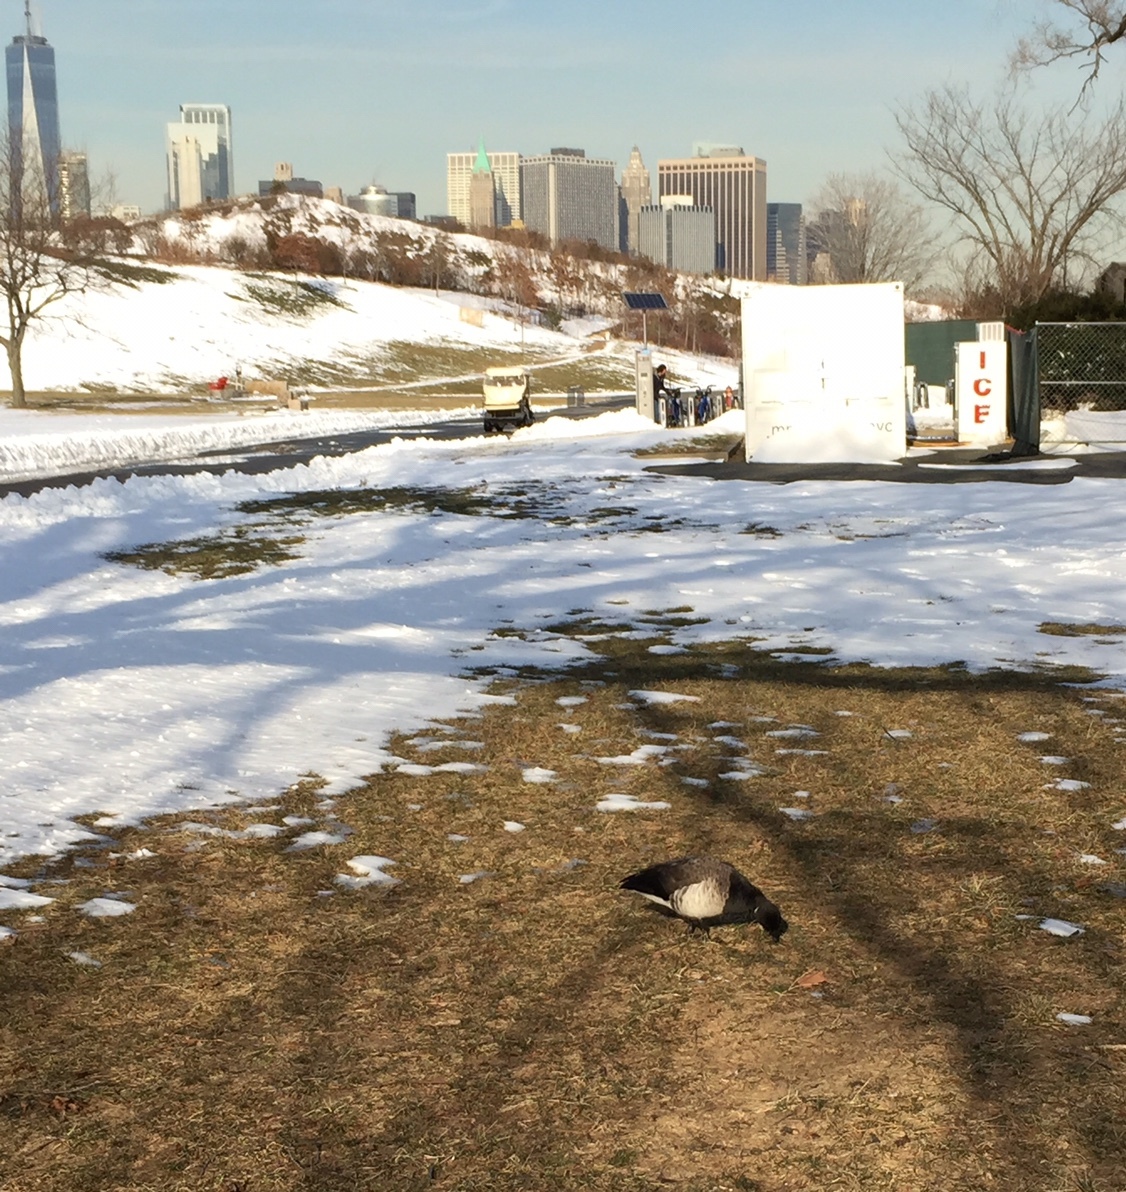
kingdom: Animalia
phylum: Chordata
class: Aves
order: Anseriformes
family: Anatidae
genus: Branta
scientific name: Branta bernicla
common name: Brant goose
